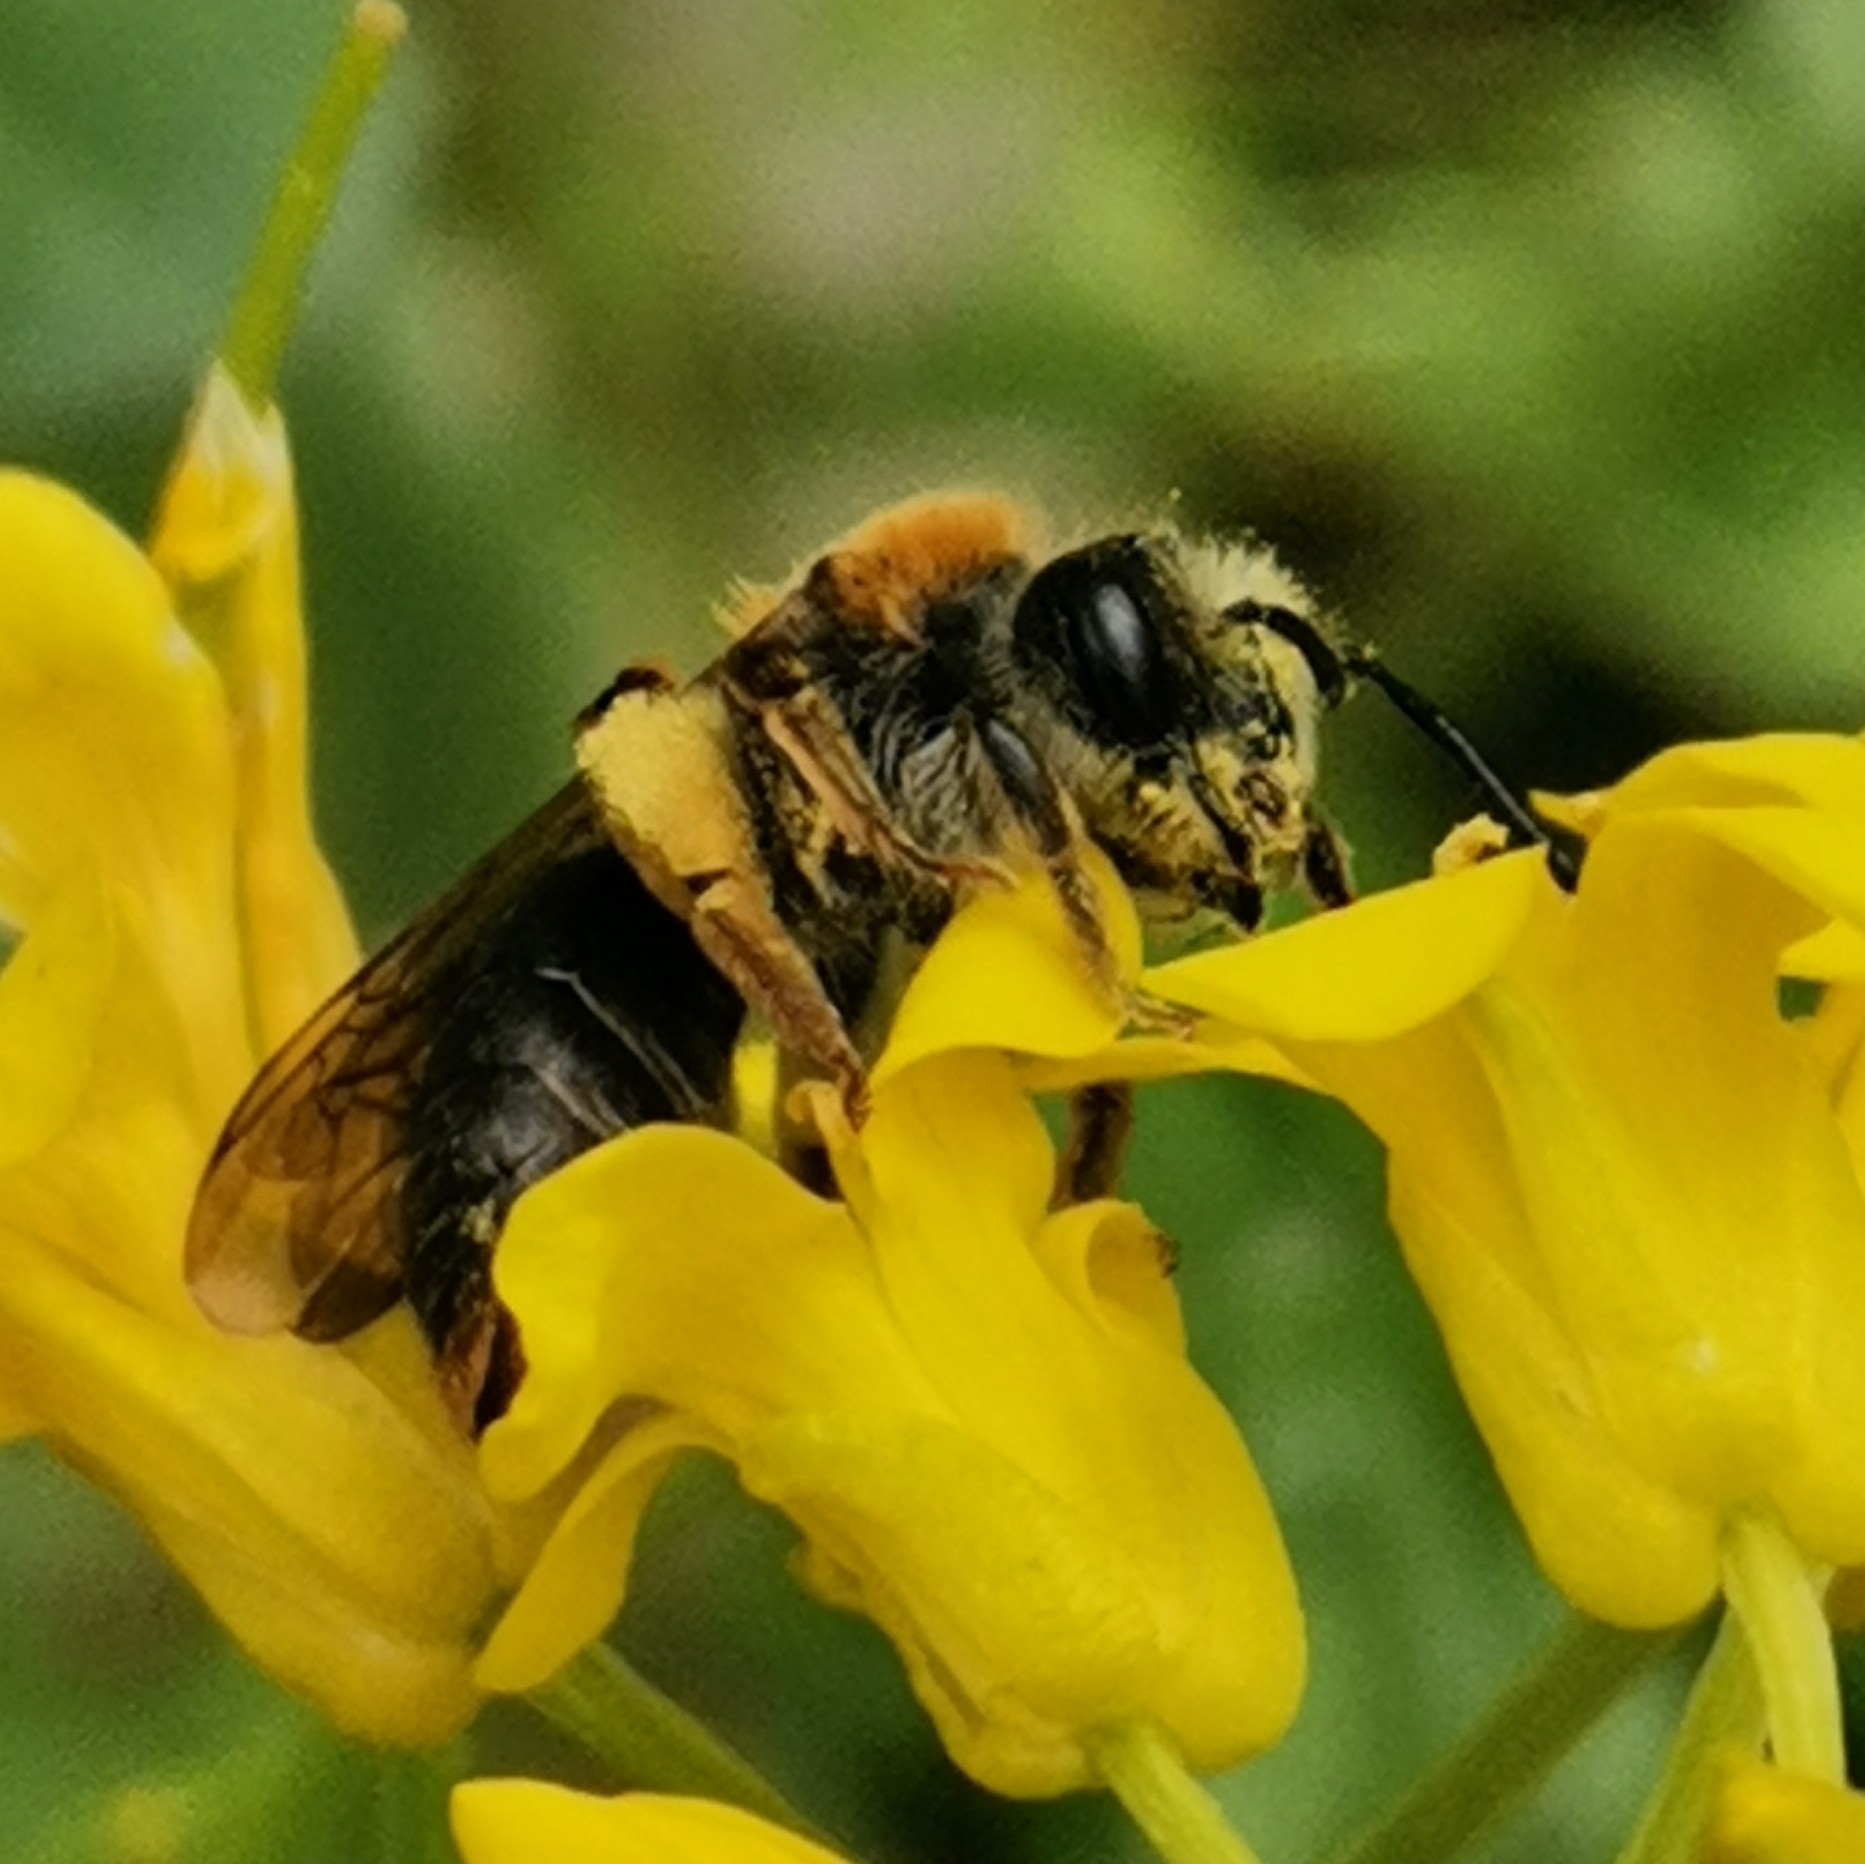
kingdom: Animalia
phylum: Arthropoda
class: Insecta
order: Hymenoptera
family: Andrenidae
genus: Andrena
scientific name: Andrena haemorrhoa
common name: Early mining bee
